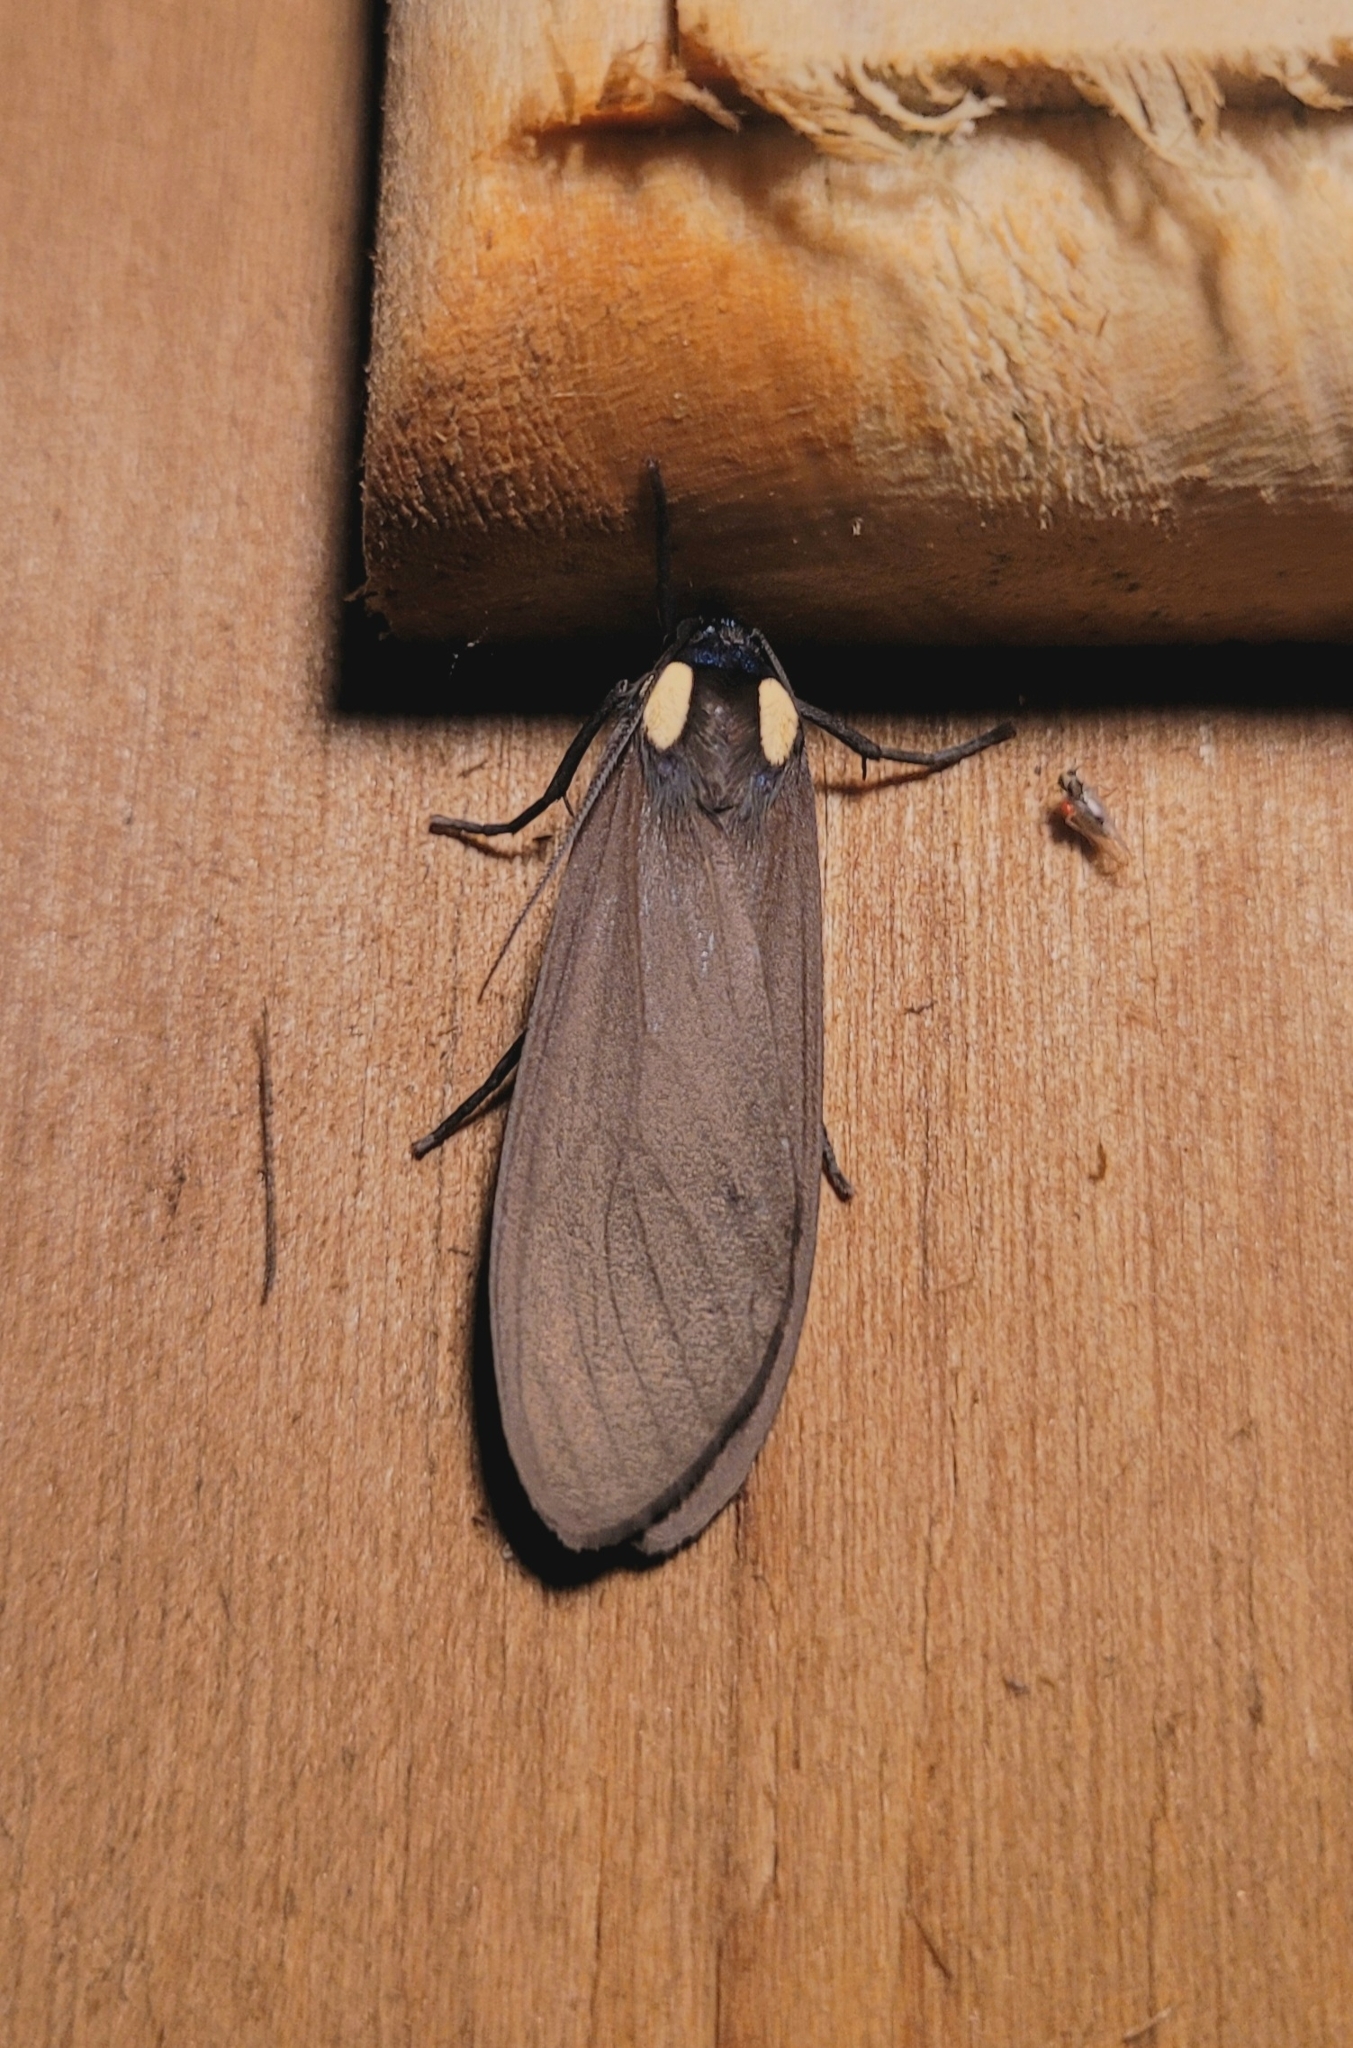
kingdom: Animalia
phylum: Arthropoda
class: Insecta
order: Lepidoptera
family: Erebidae
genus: Opharus
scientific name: Opharus bimaculata
